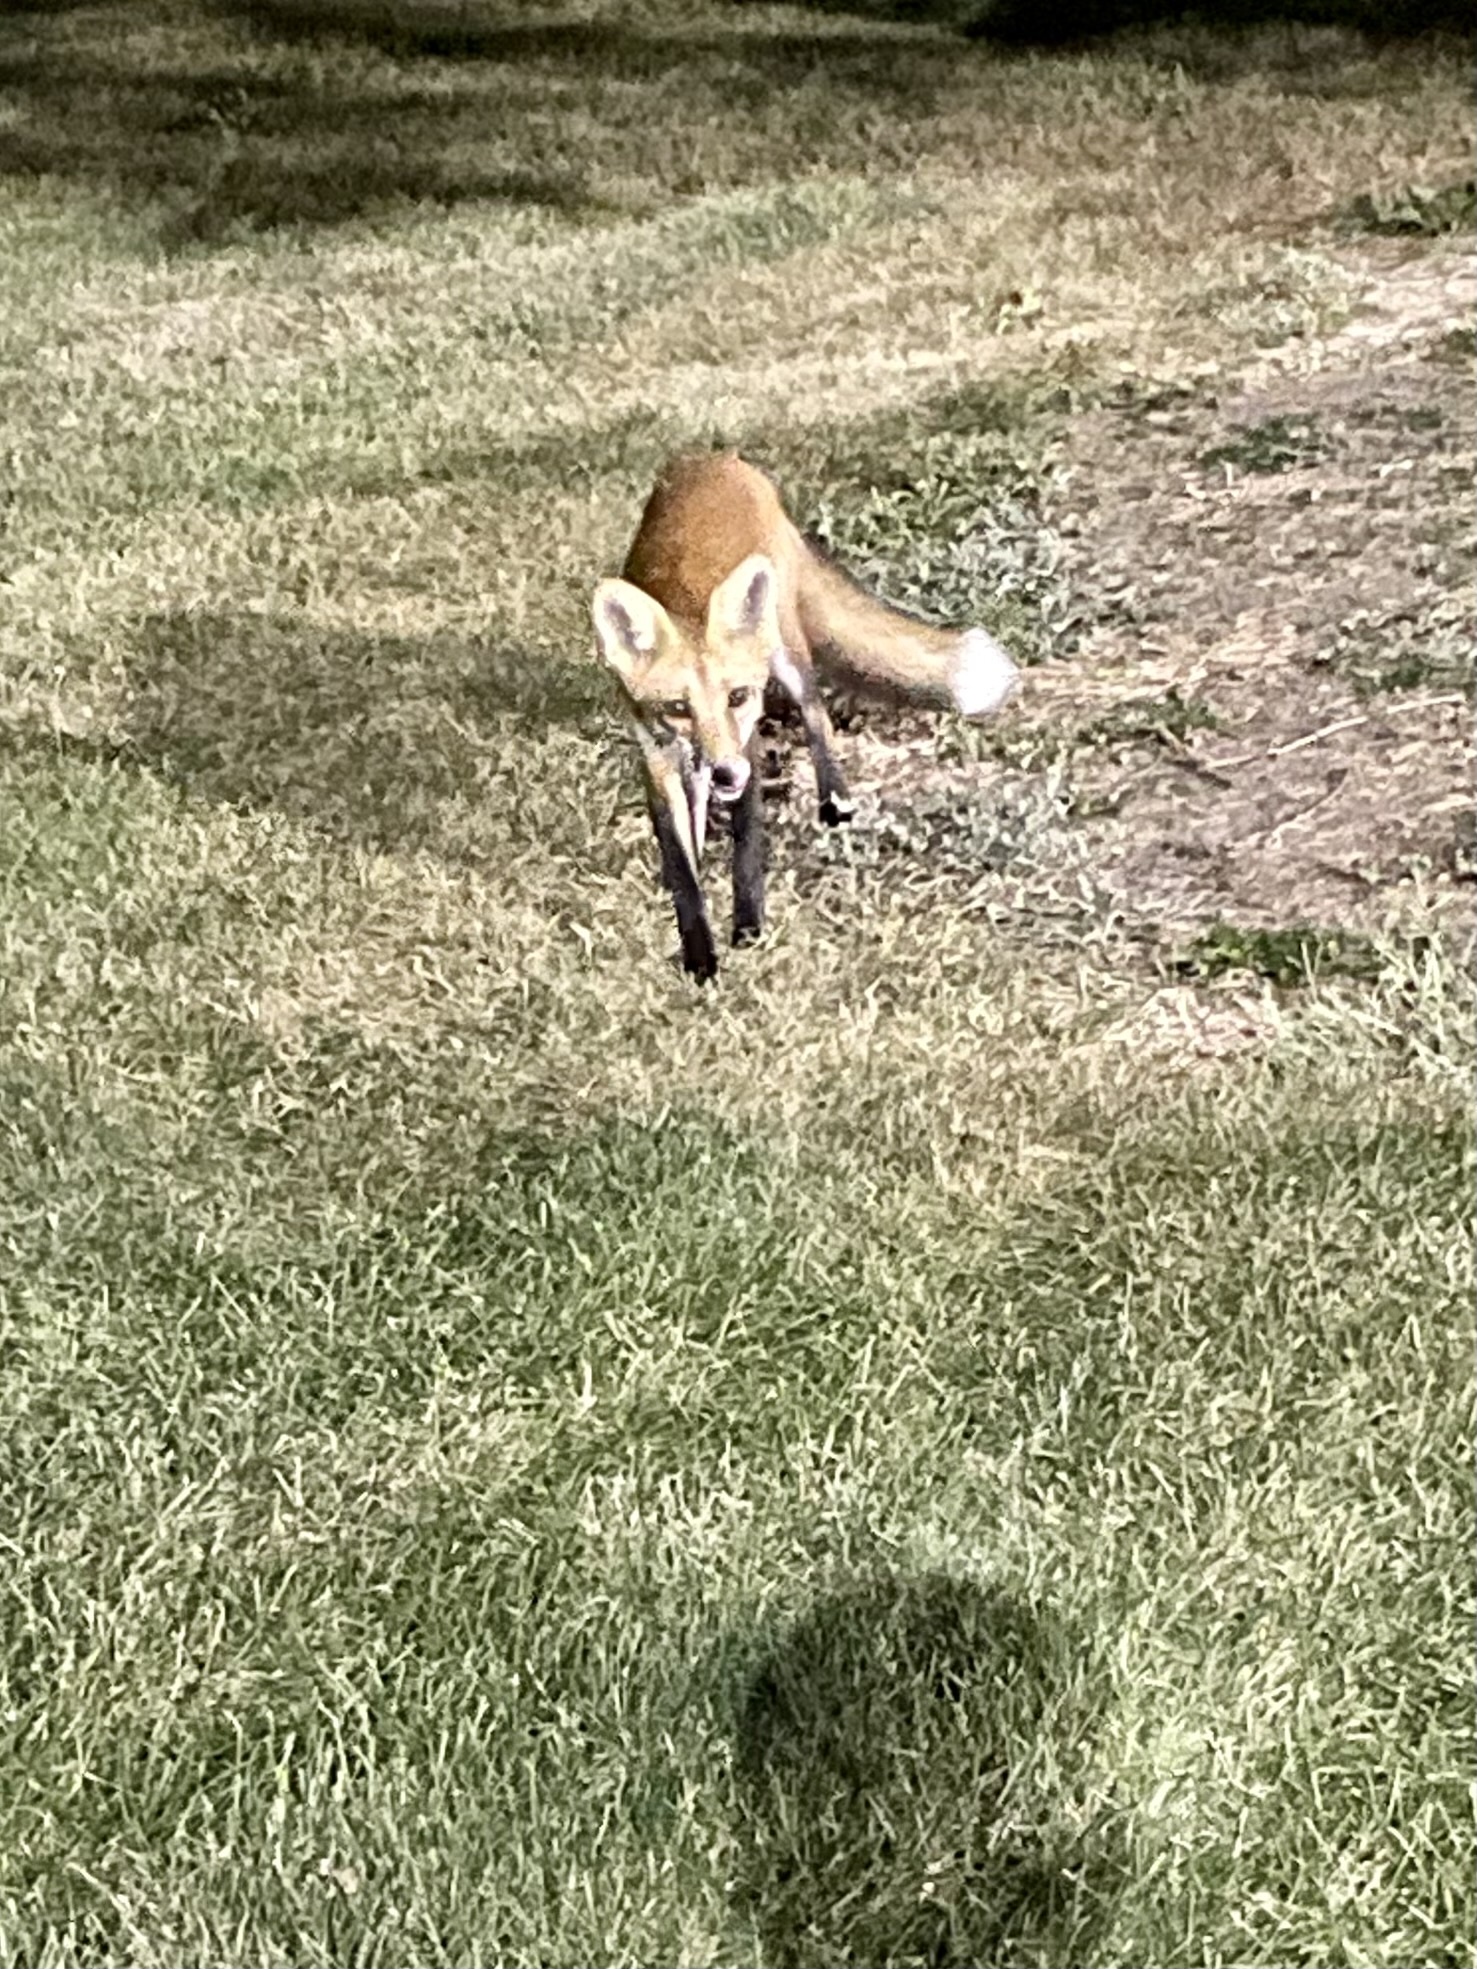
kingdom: Animalia
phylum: Chordata
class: Mammalia
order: Carnivora
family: Canidae
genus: Vulpes
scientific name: Vulpes vulpes
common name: Red fox
